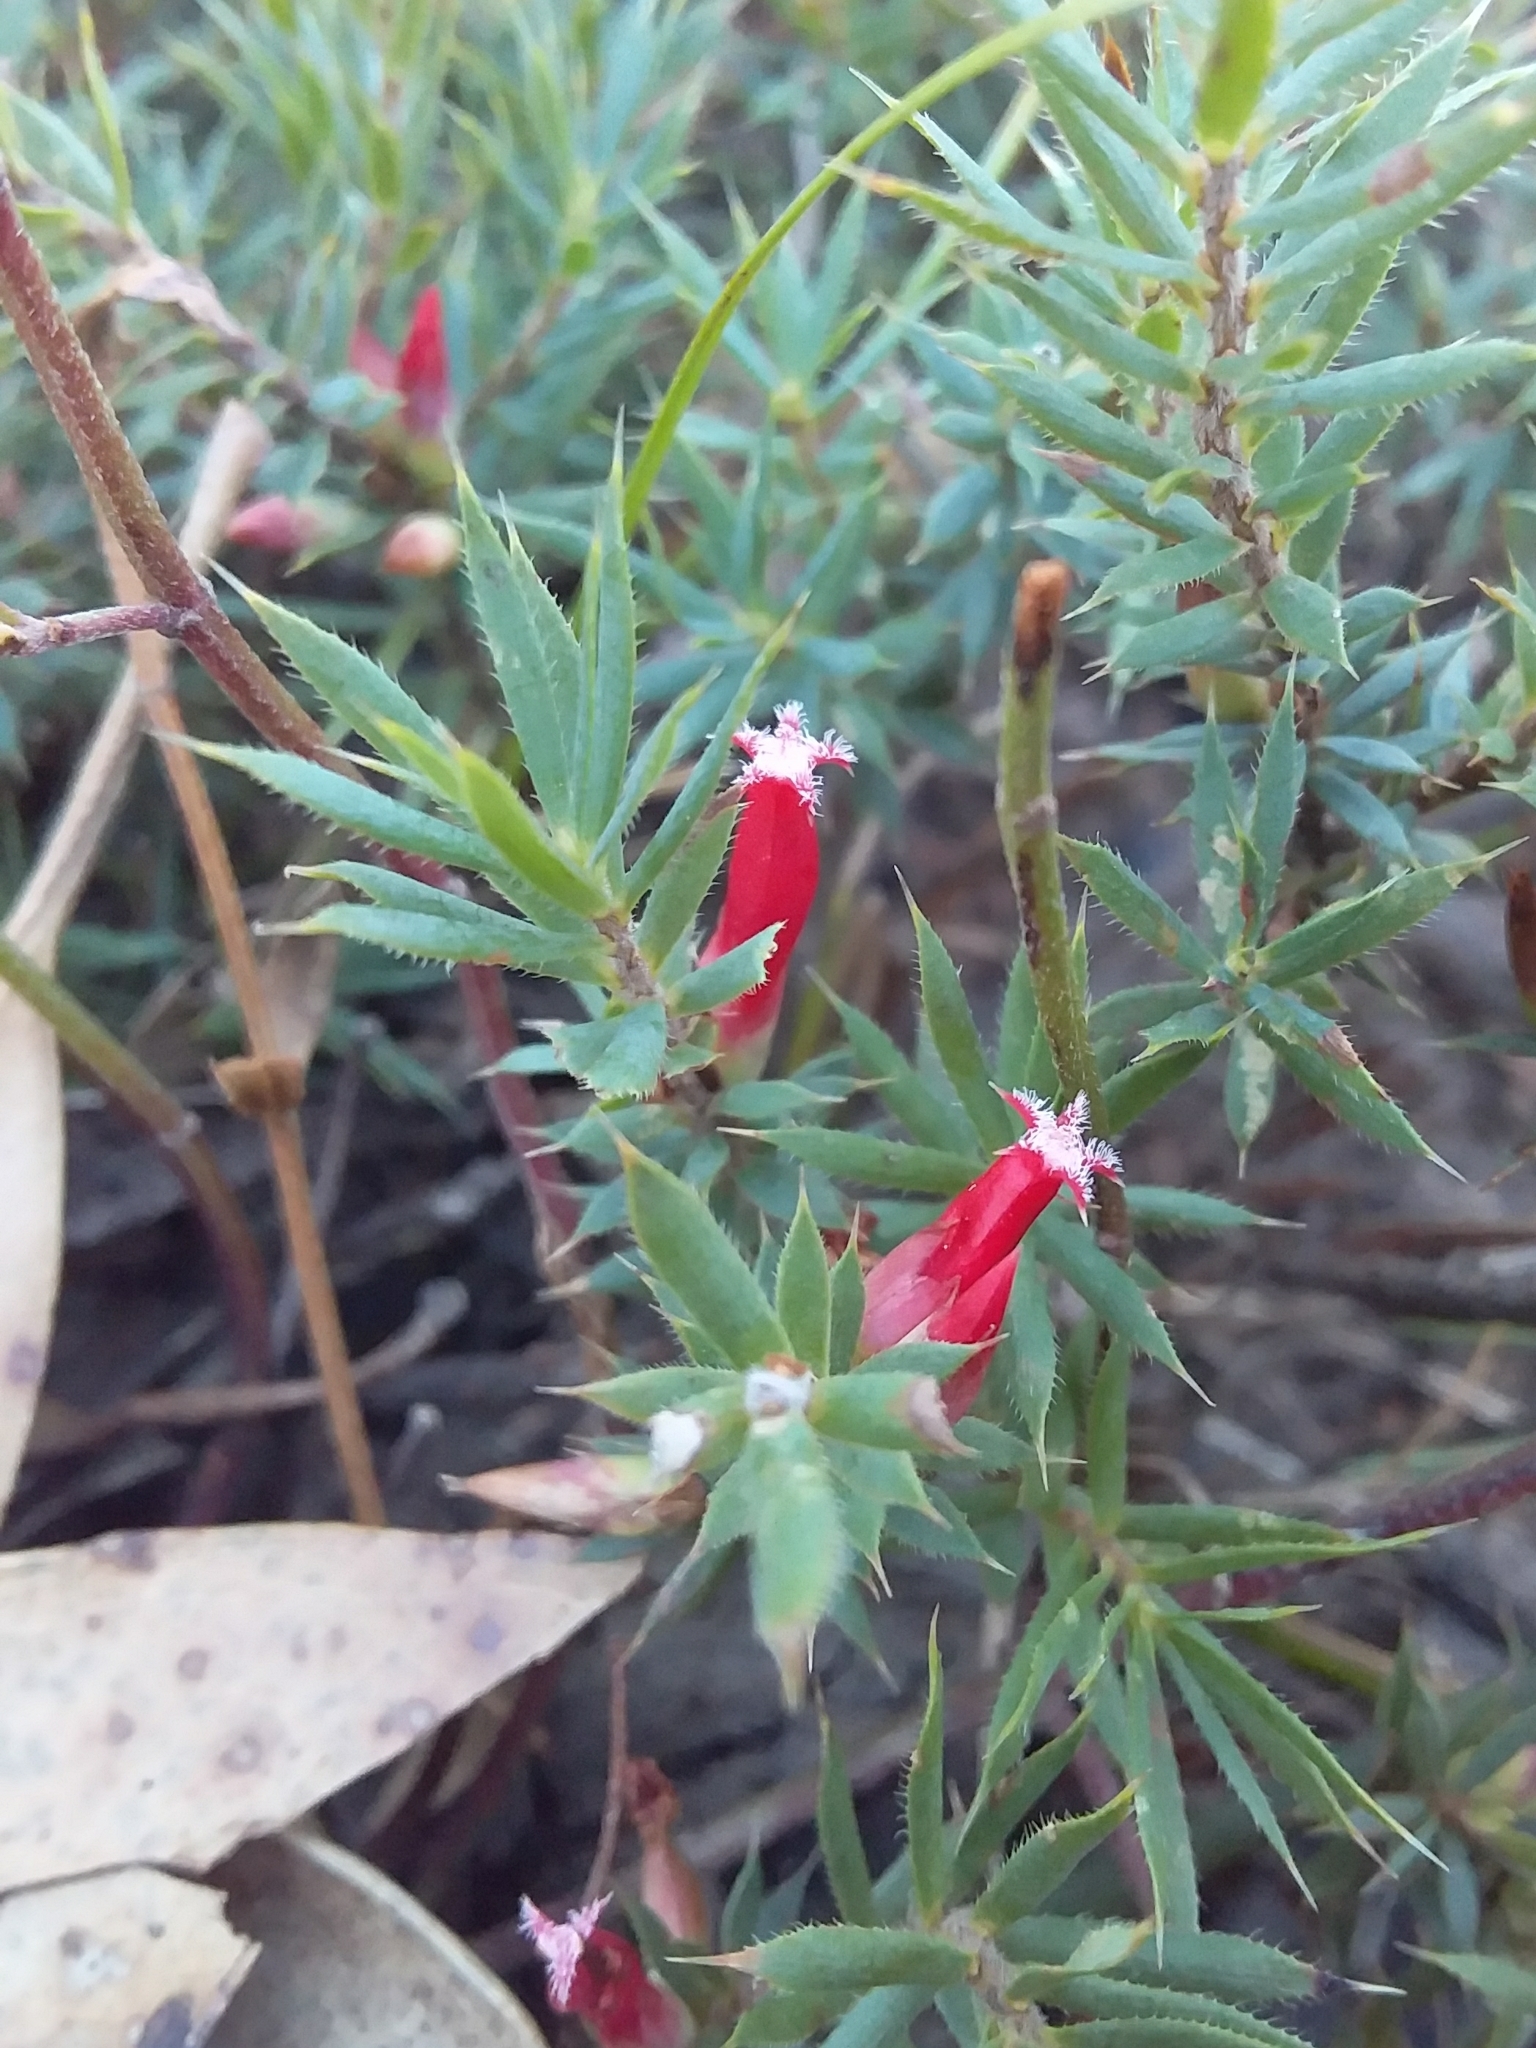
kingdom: Plantae
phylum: Tracheophyta
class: Magnoliopsida
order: Ericales
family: Ericaceae
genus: Styphelia
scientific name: Styphelia humifusa
